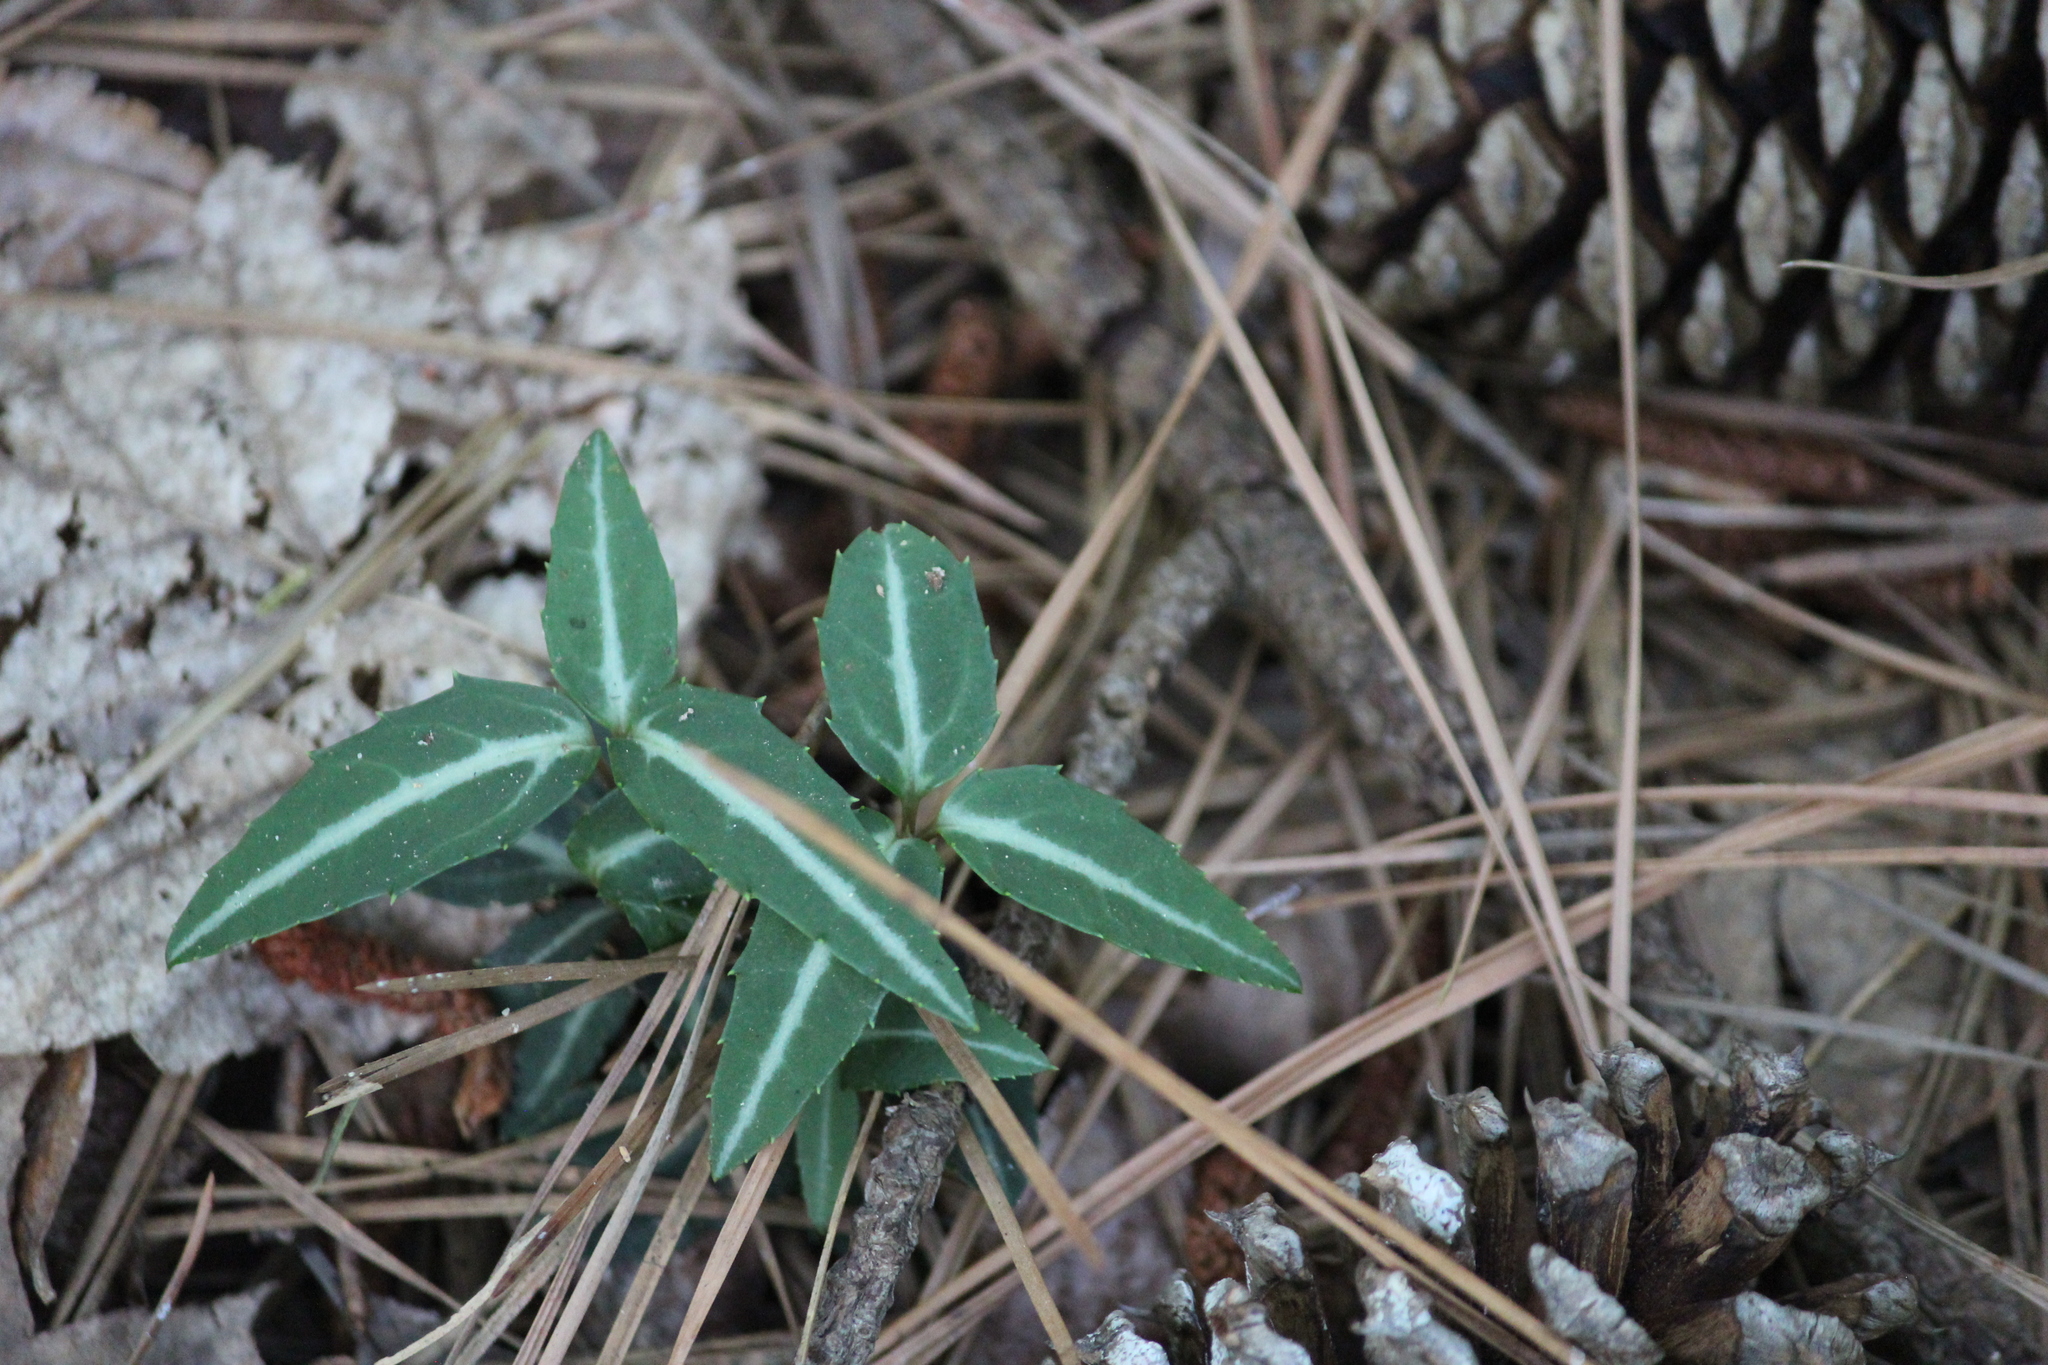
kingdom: Plantae
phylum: Tracheophyta
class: Magnoliopsida
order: Ericales
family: Ericaceae
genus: Chimaphila
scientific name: Chimaphila maculata
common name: Spotted pipsissewa
